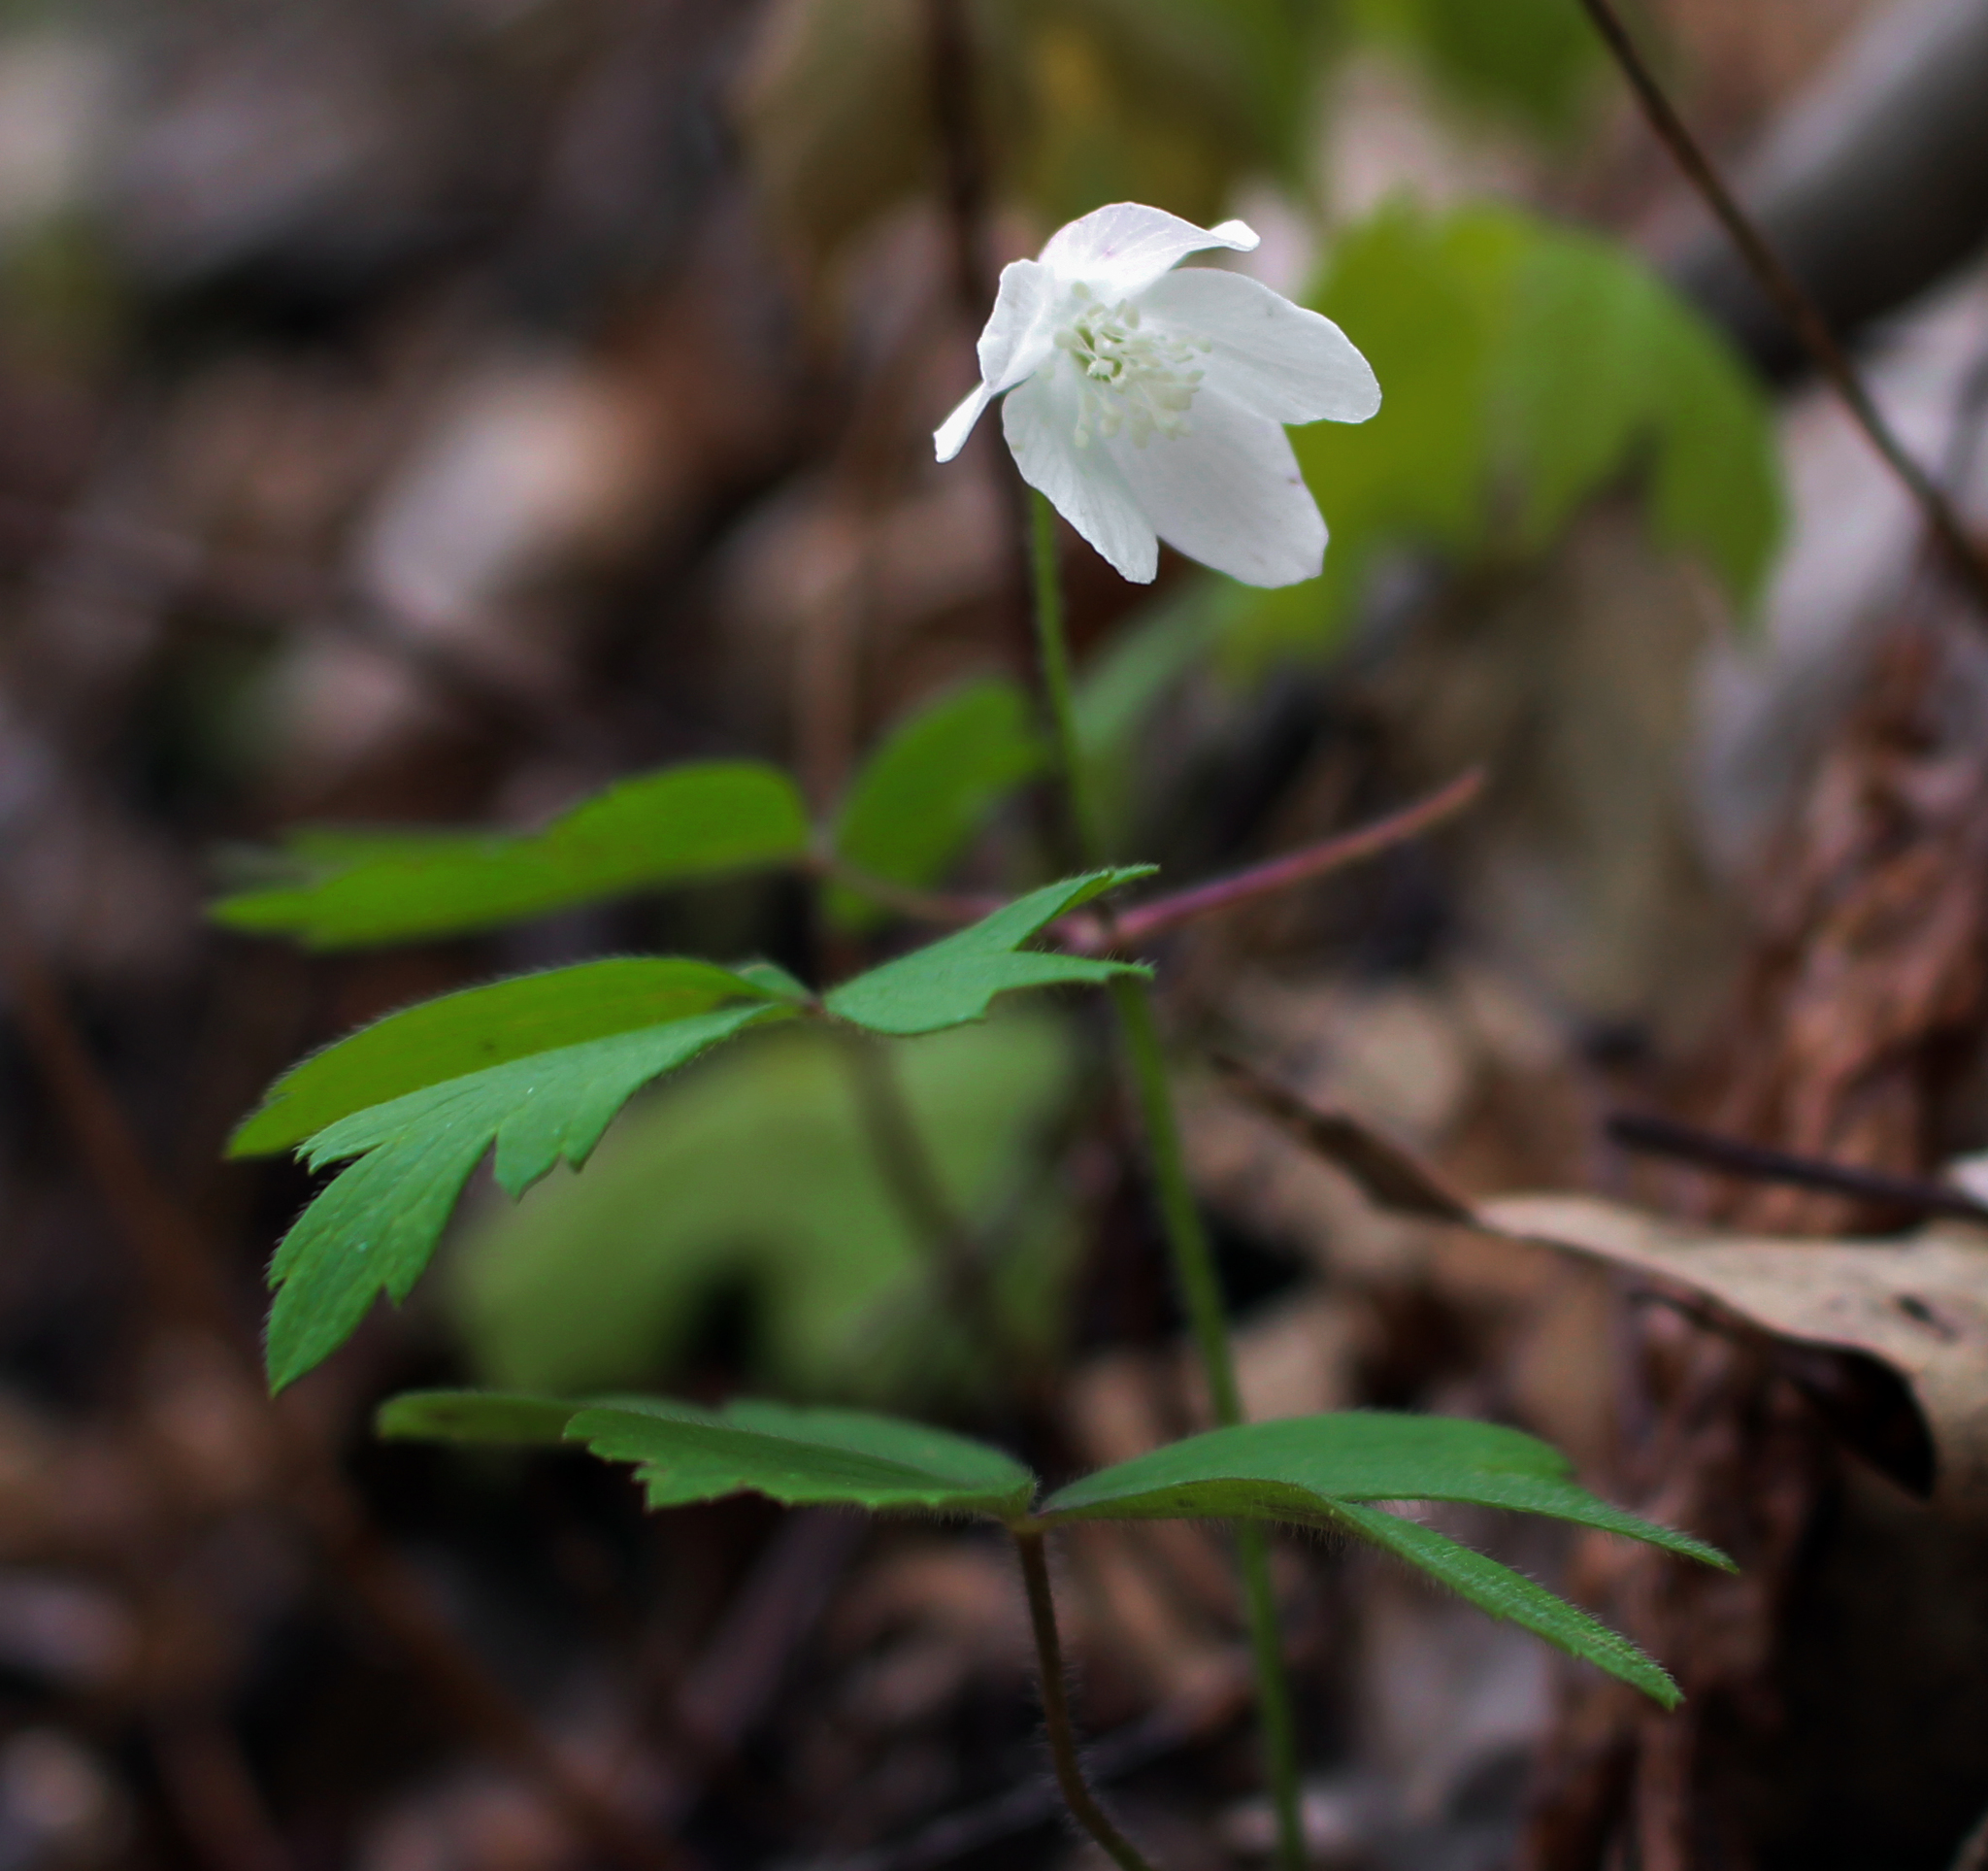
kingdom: Plantae
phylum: Tracheophyta
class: Magnoliopsida
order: Ranunculales
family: Ranunculaceae
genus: Anemone
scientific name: Anemone quinquefolia
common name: Wood anemone
